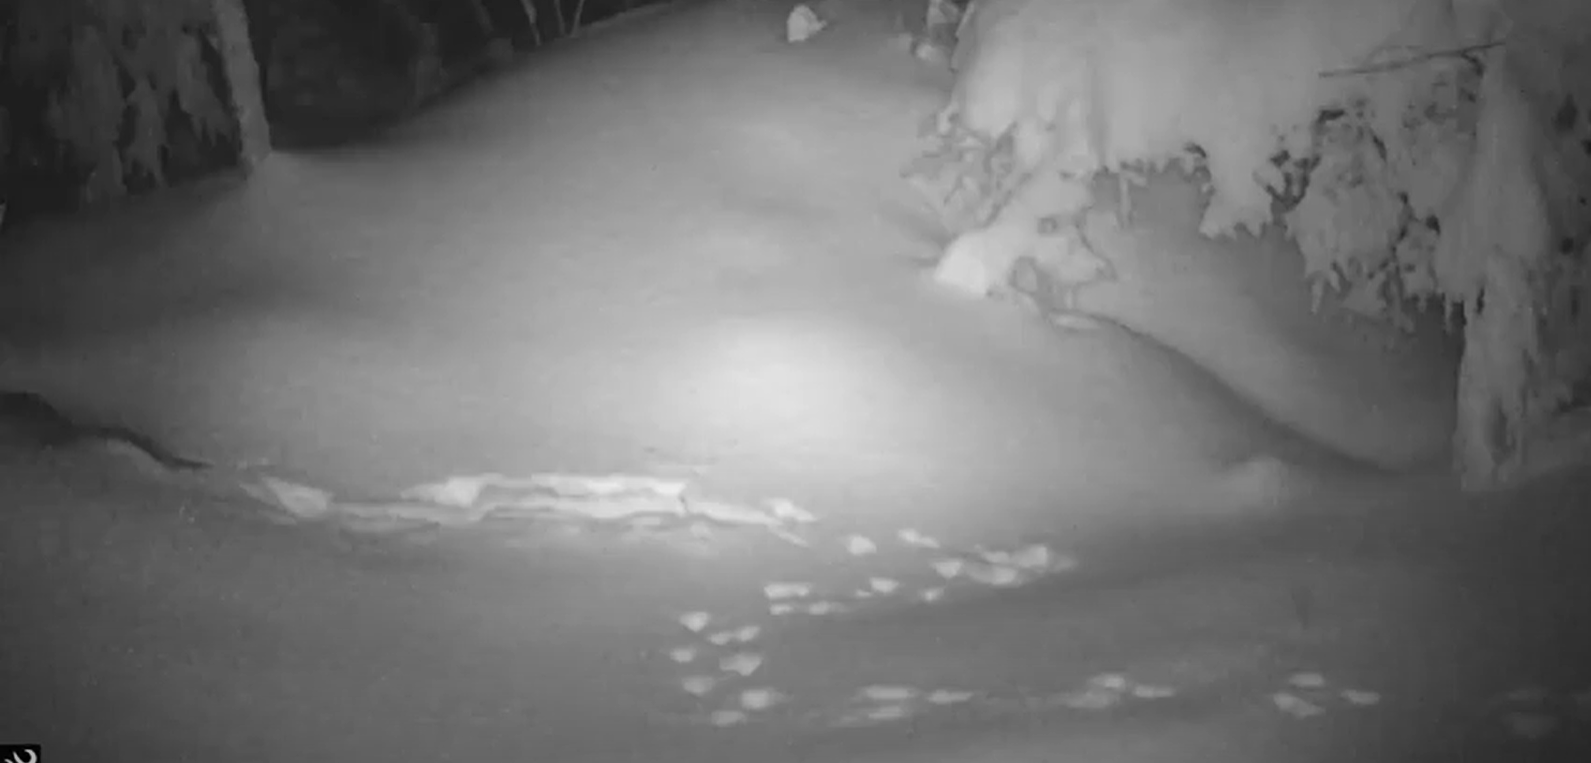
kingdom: Animalia
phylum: Chordata
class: Mammalia
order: Carnivora
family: Mustelidae
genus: Mustela
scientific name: Mustela
